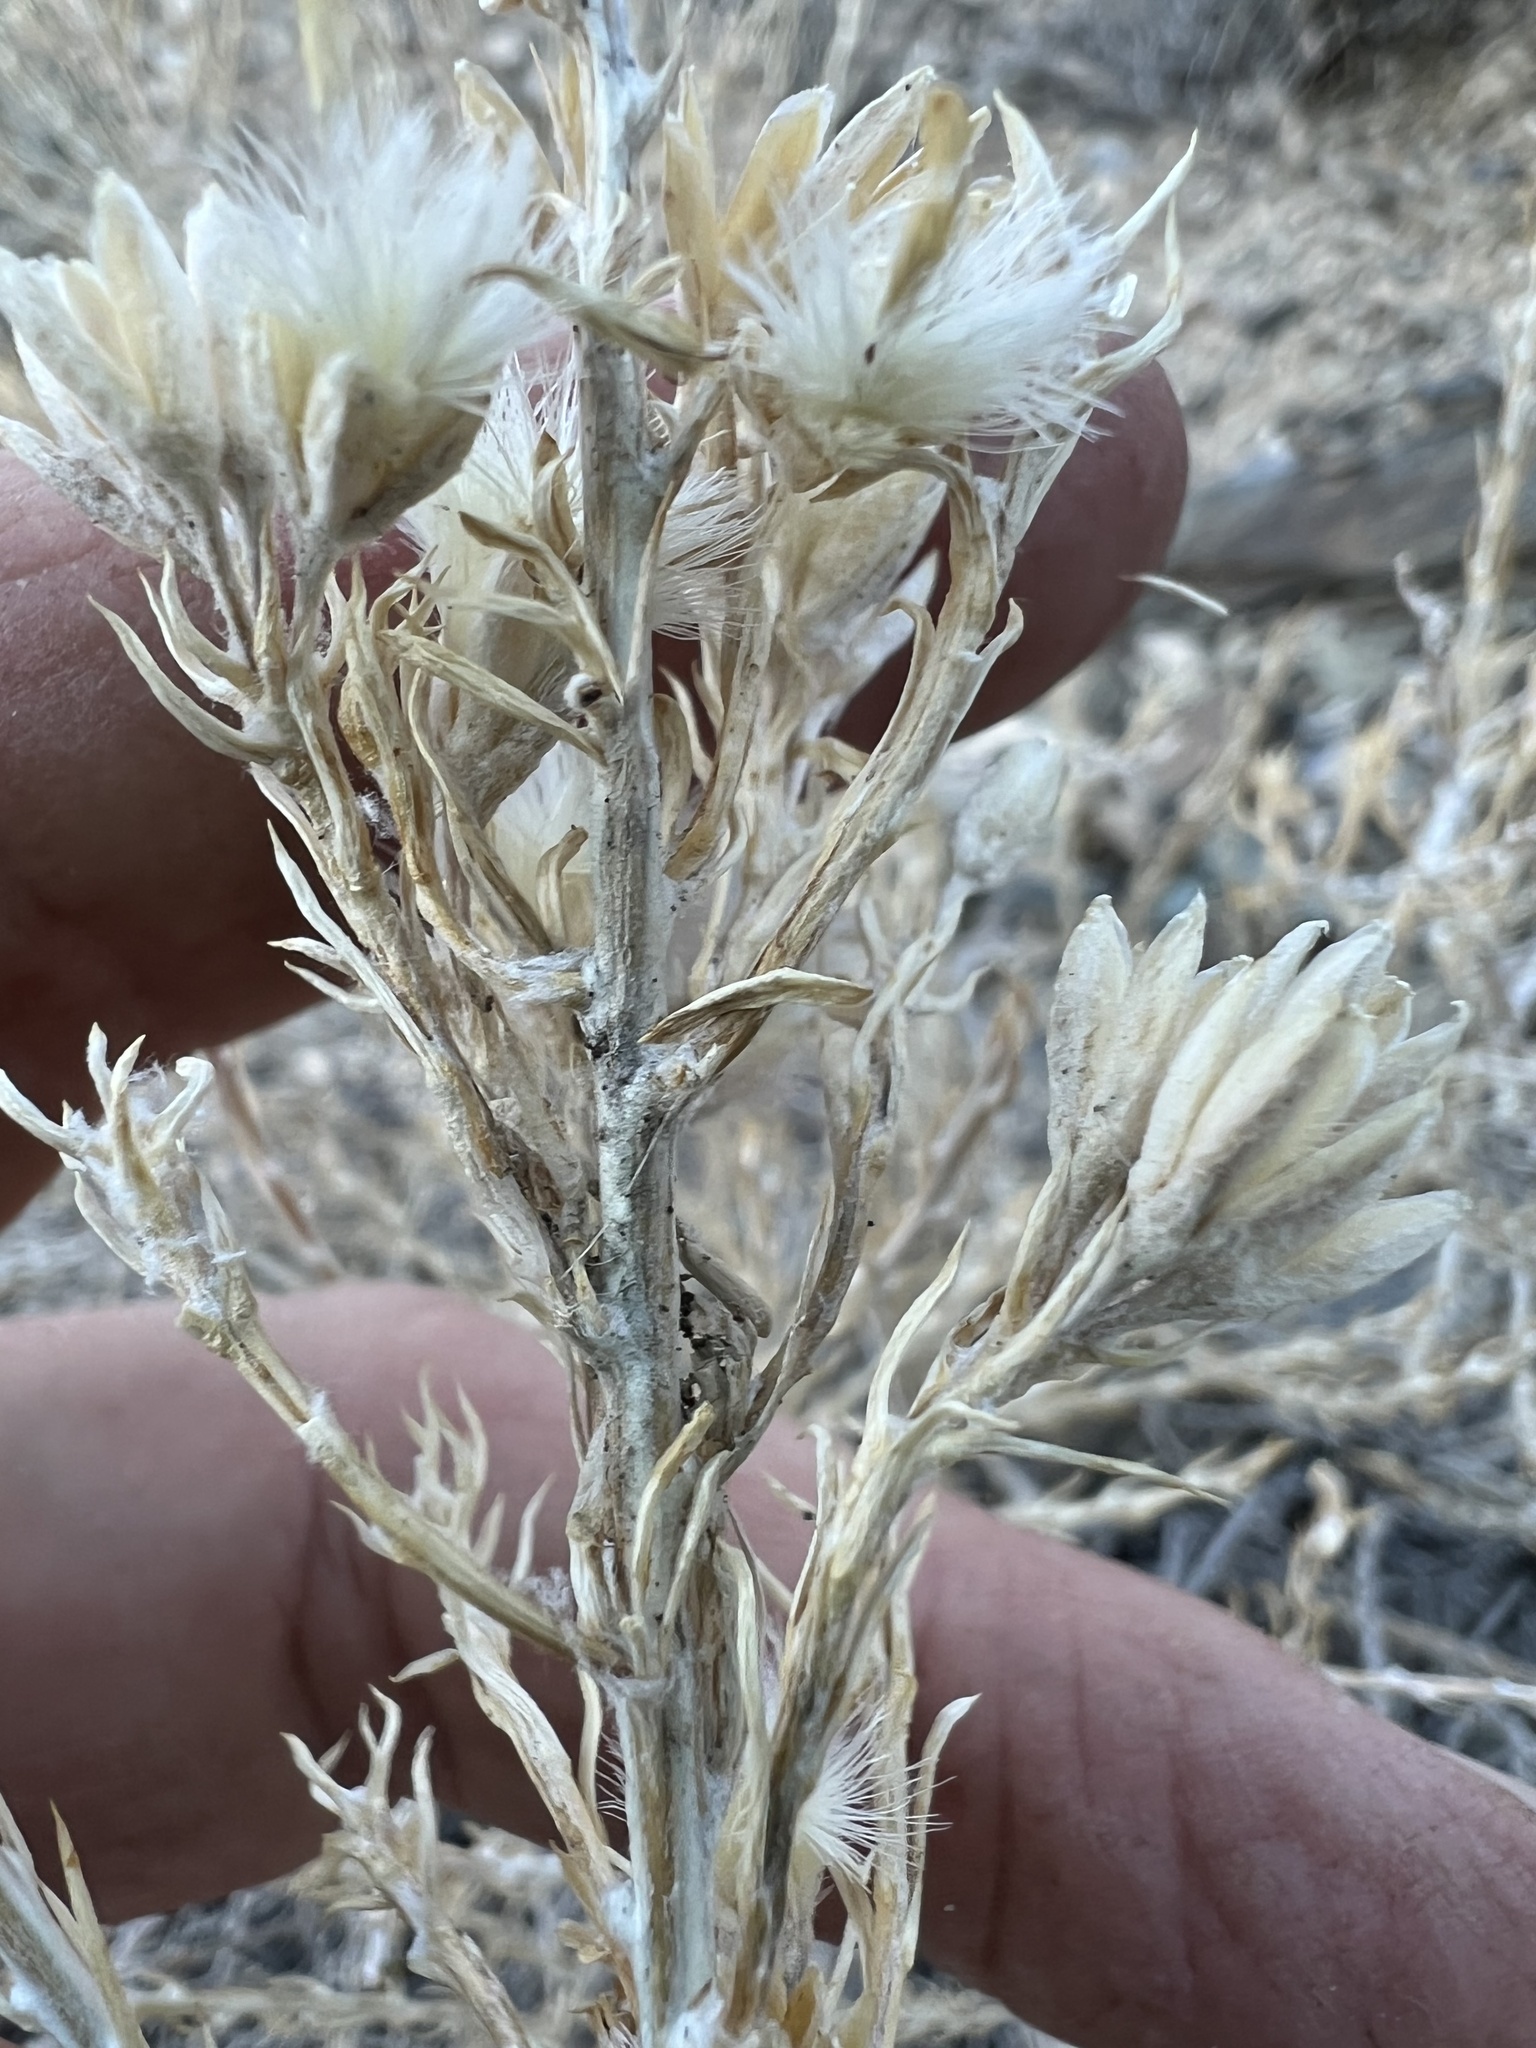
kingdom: Plantae
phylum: Tracheophyta
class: Magnoliopsida
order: Asterales
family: Asteraceae
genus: Tetradymia
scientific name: Tetradymia glabrata
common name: Smooth tetradymia
